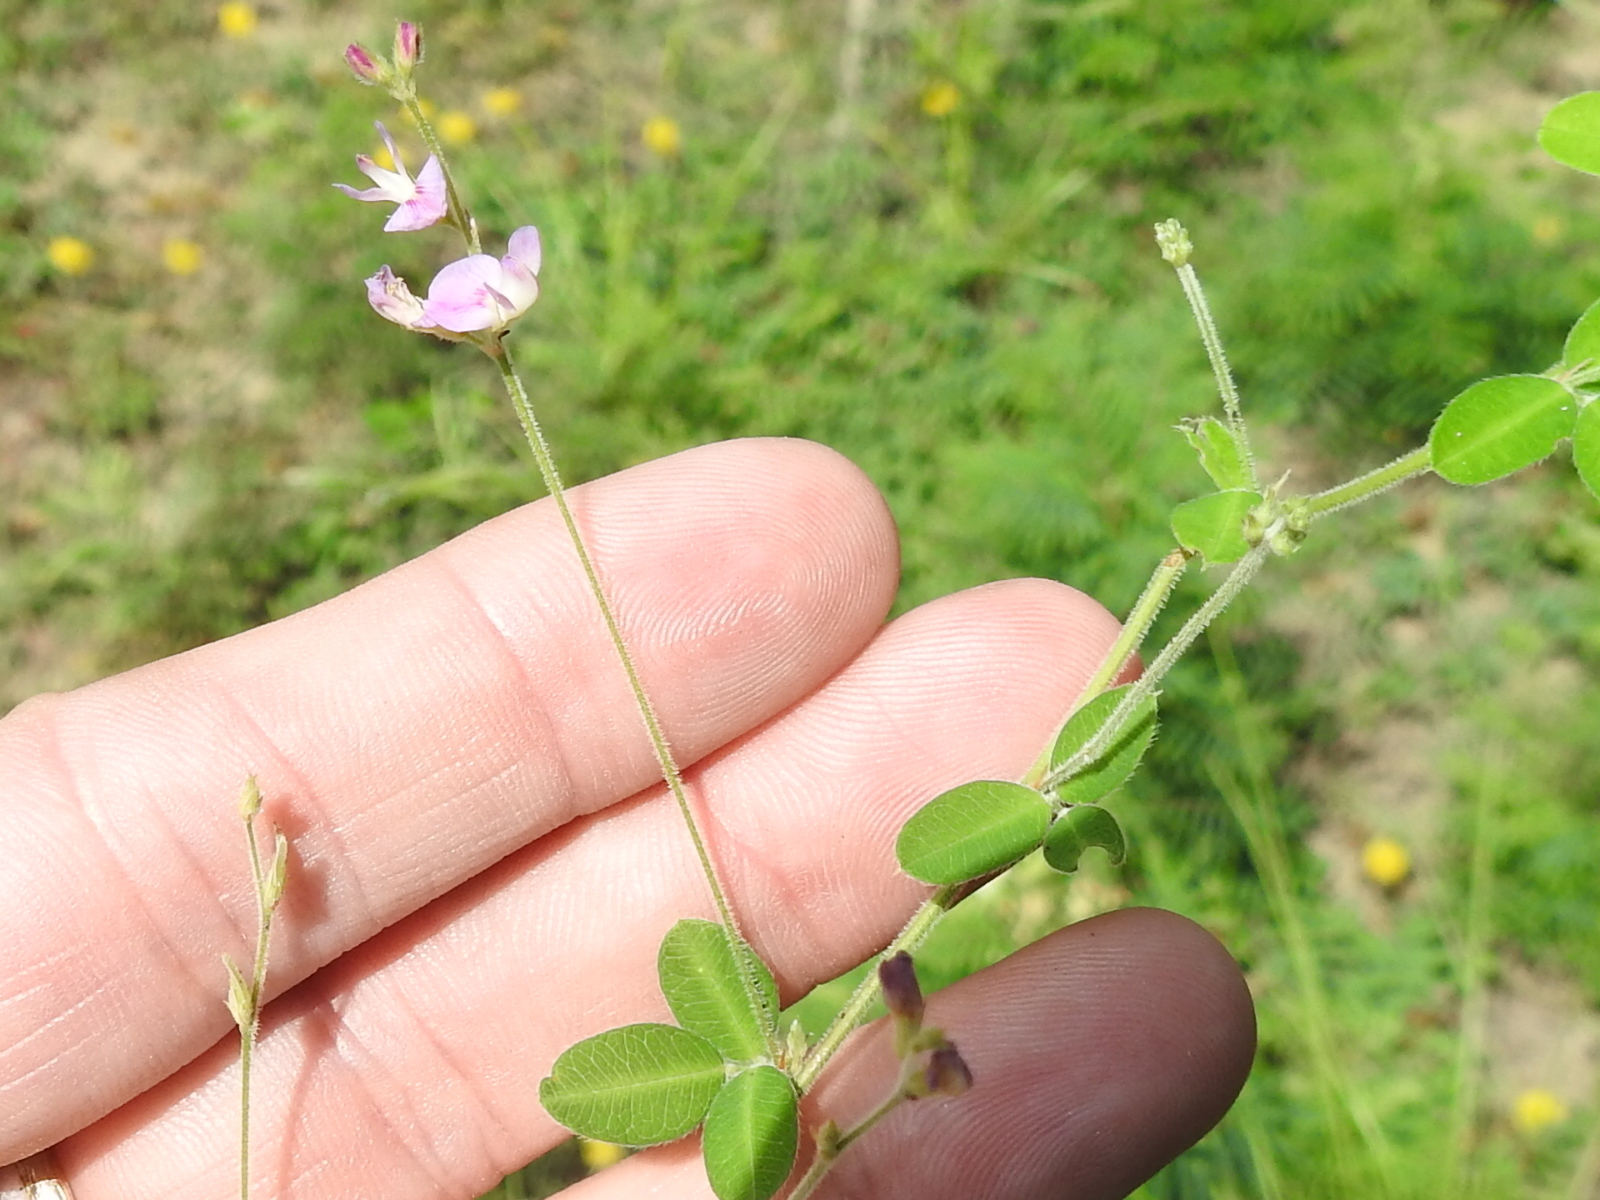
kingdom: Plantae
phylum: Tracheophyta
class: Magnoliopsida
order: Fabales
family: Fabaceae
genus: Lespedeza
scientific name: Lespedeza procumbens
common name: Downy trailing bush-clover
